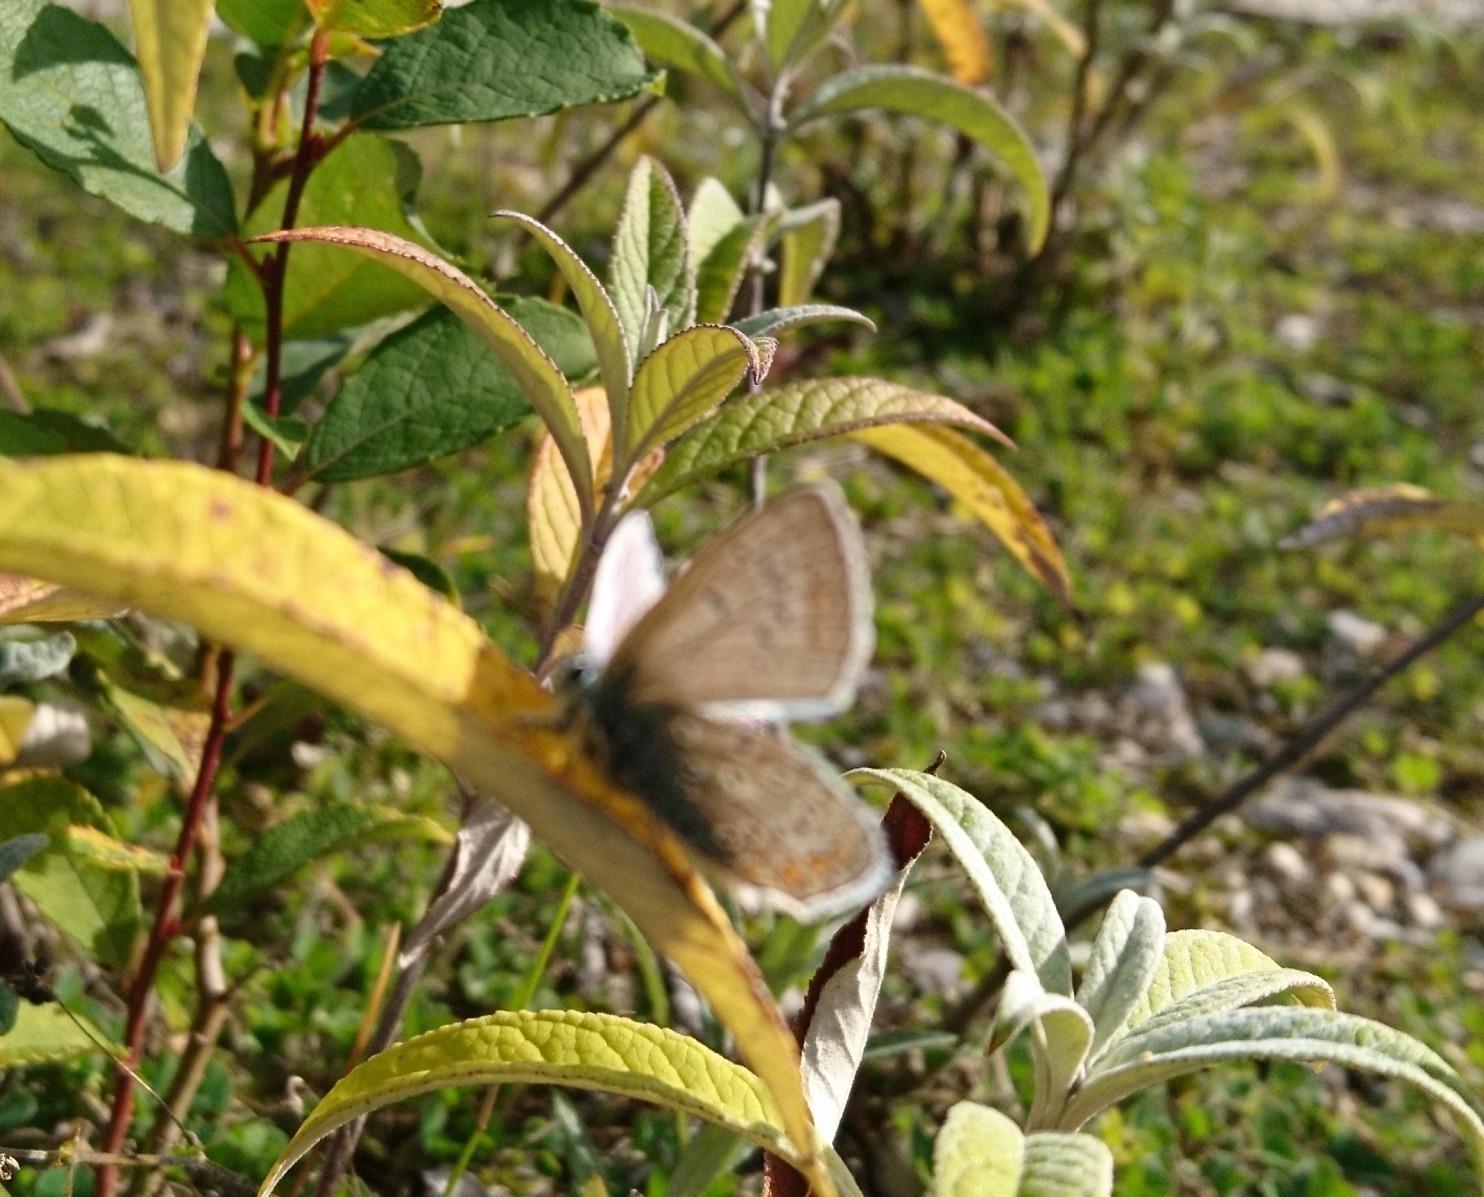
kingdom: Animalia
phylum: Arthropoda
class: Insecta
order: Lepidoptera
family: Lycaenidae
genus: Polyommatus
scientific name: Polyommatus icarus
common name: Common blue
